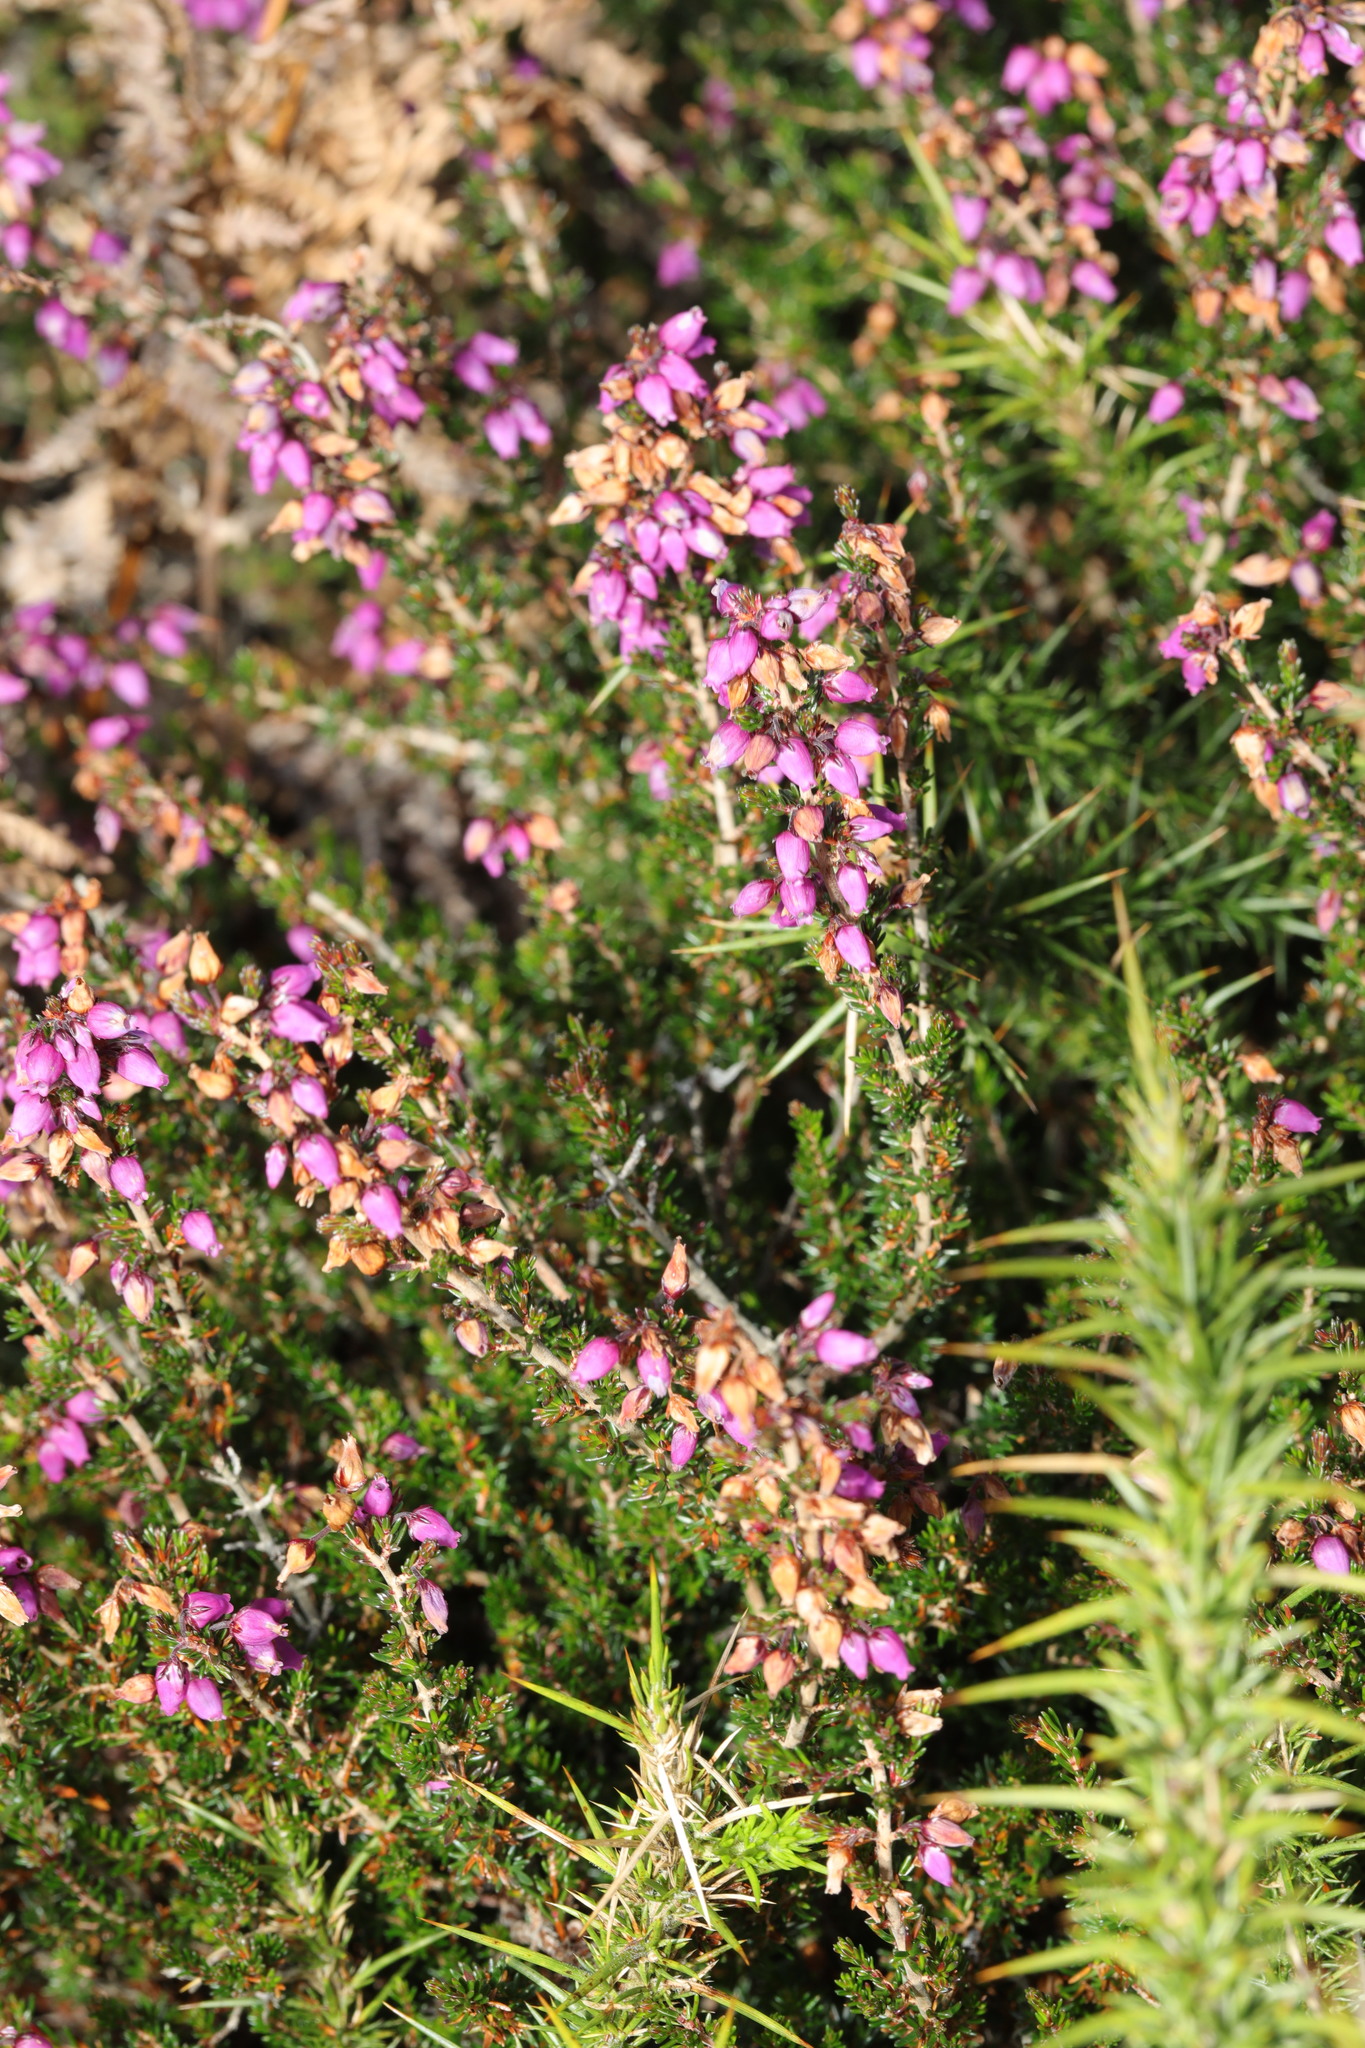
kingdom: Plantae
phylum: Tracheophyta
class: Magnoliopsida
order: Ericales
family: Ericaceae
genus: Erica
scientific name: Erica cinerea
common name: Bell heather
